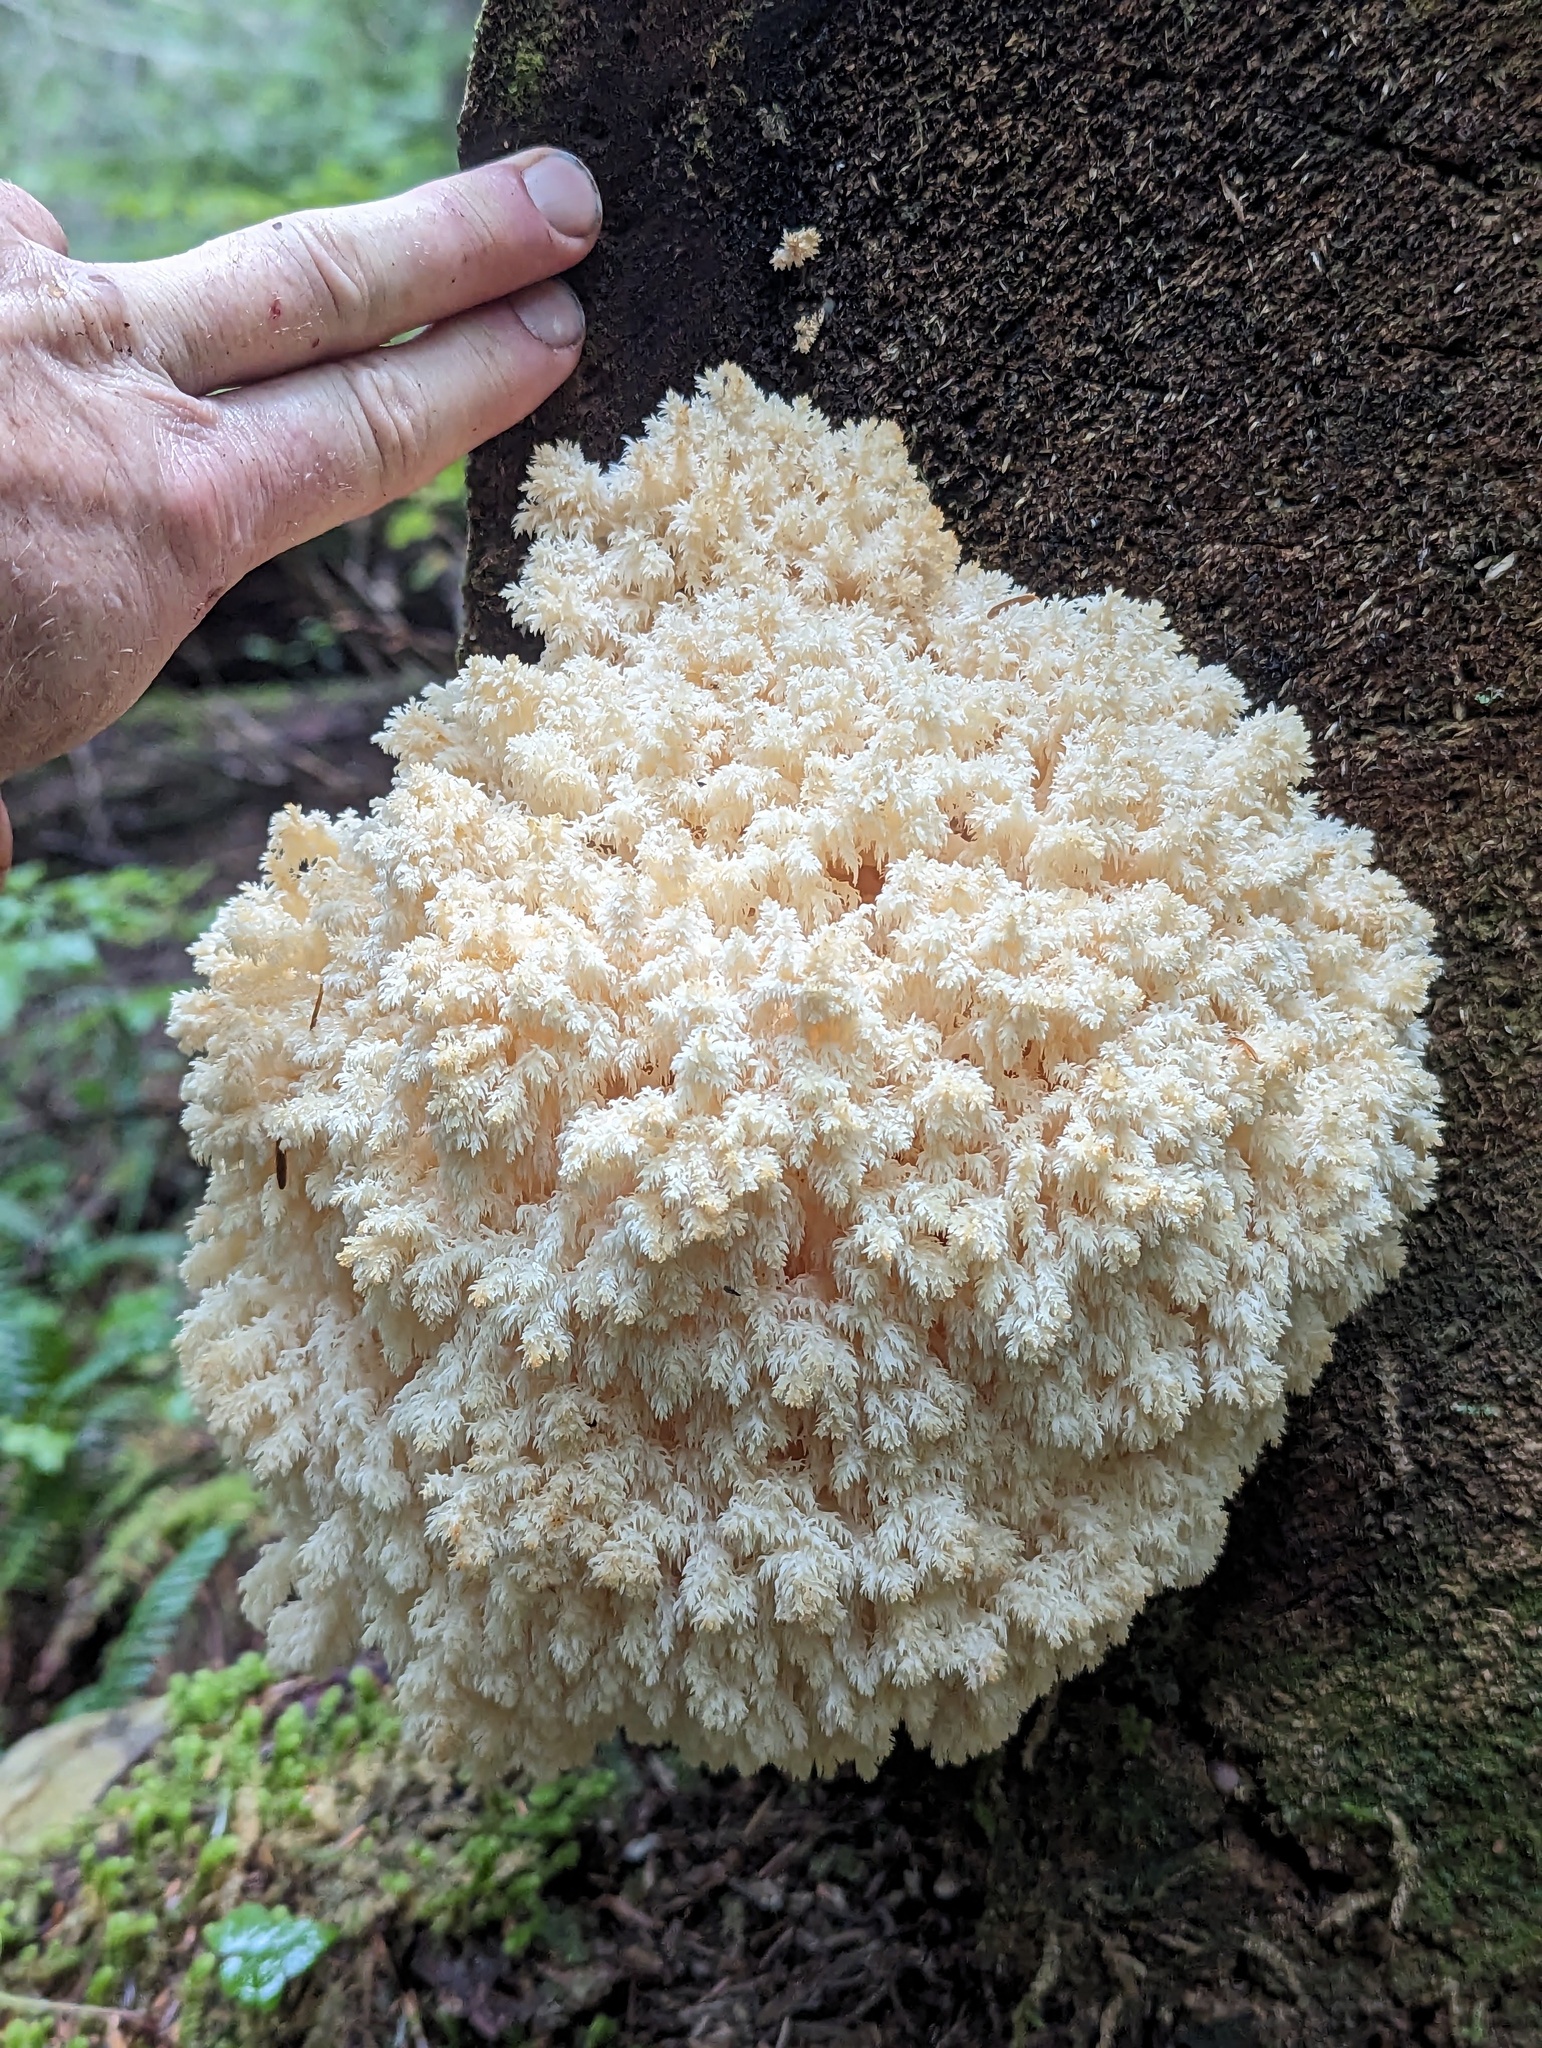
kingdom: Fungi
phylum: Basidiomycota
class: Agaricomycetes
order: Russulales
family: Hericiaceae
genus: Hericium
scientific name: Hericium abietis
